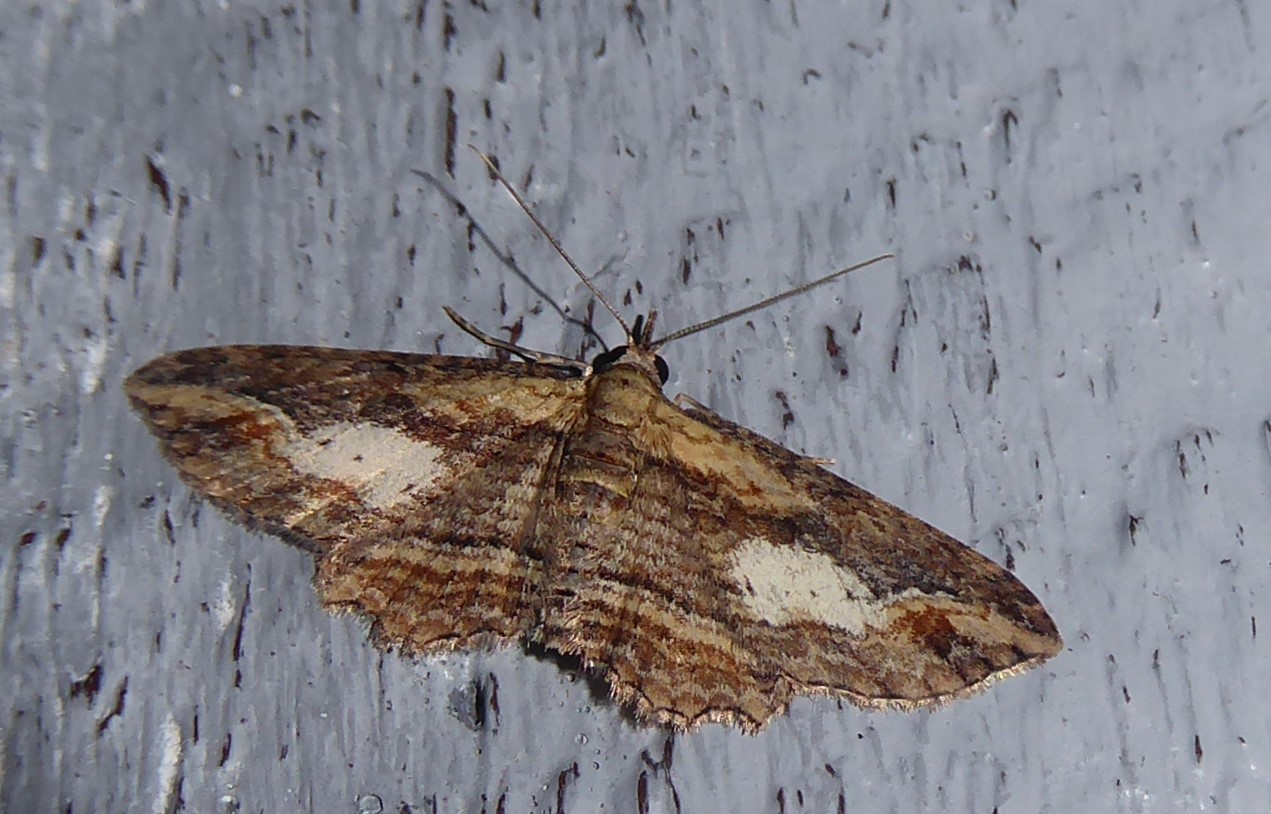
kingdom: Animalia
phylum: Arthropoda
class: Insecta
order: Lepidoptera
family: Geometridae
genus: Chloroclystis
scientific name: Chloroclystis filata
